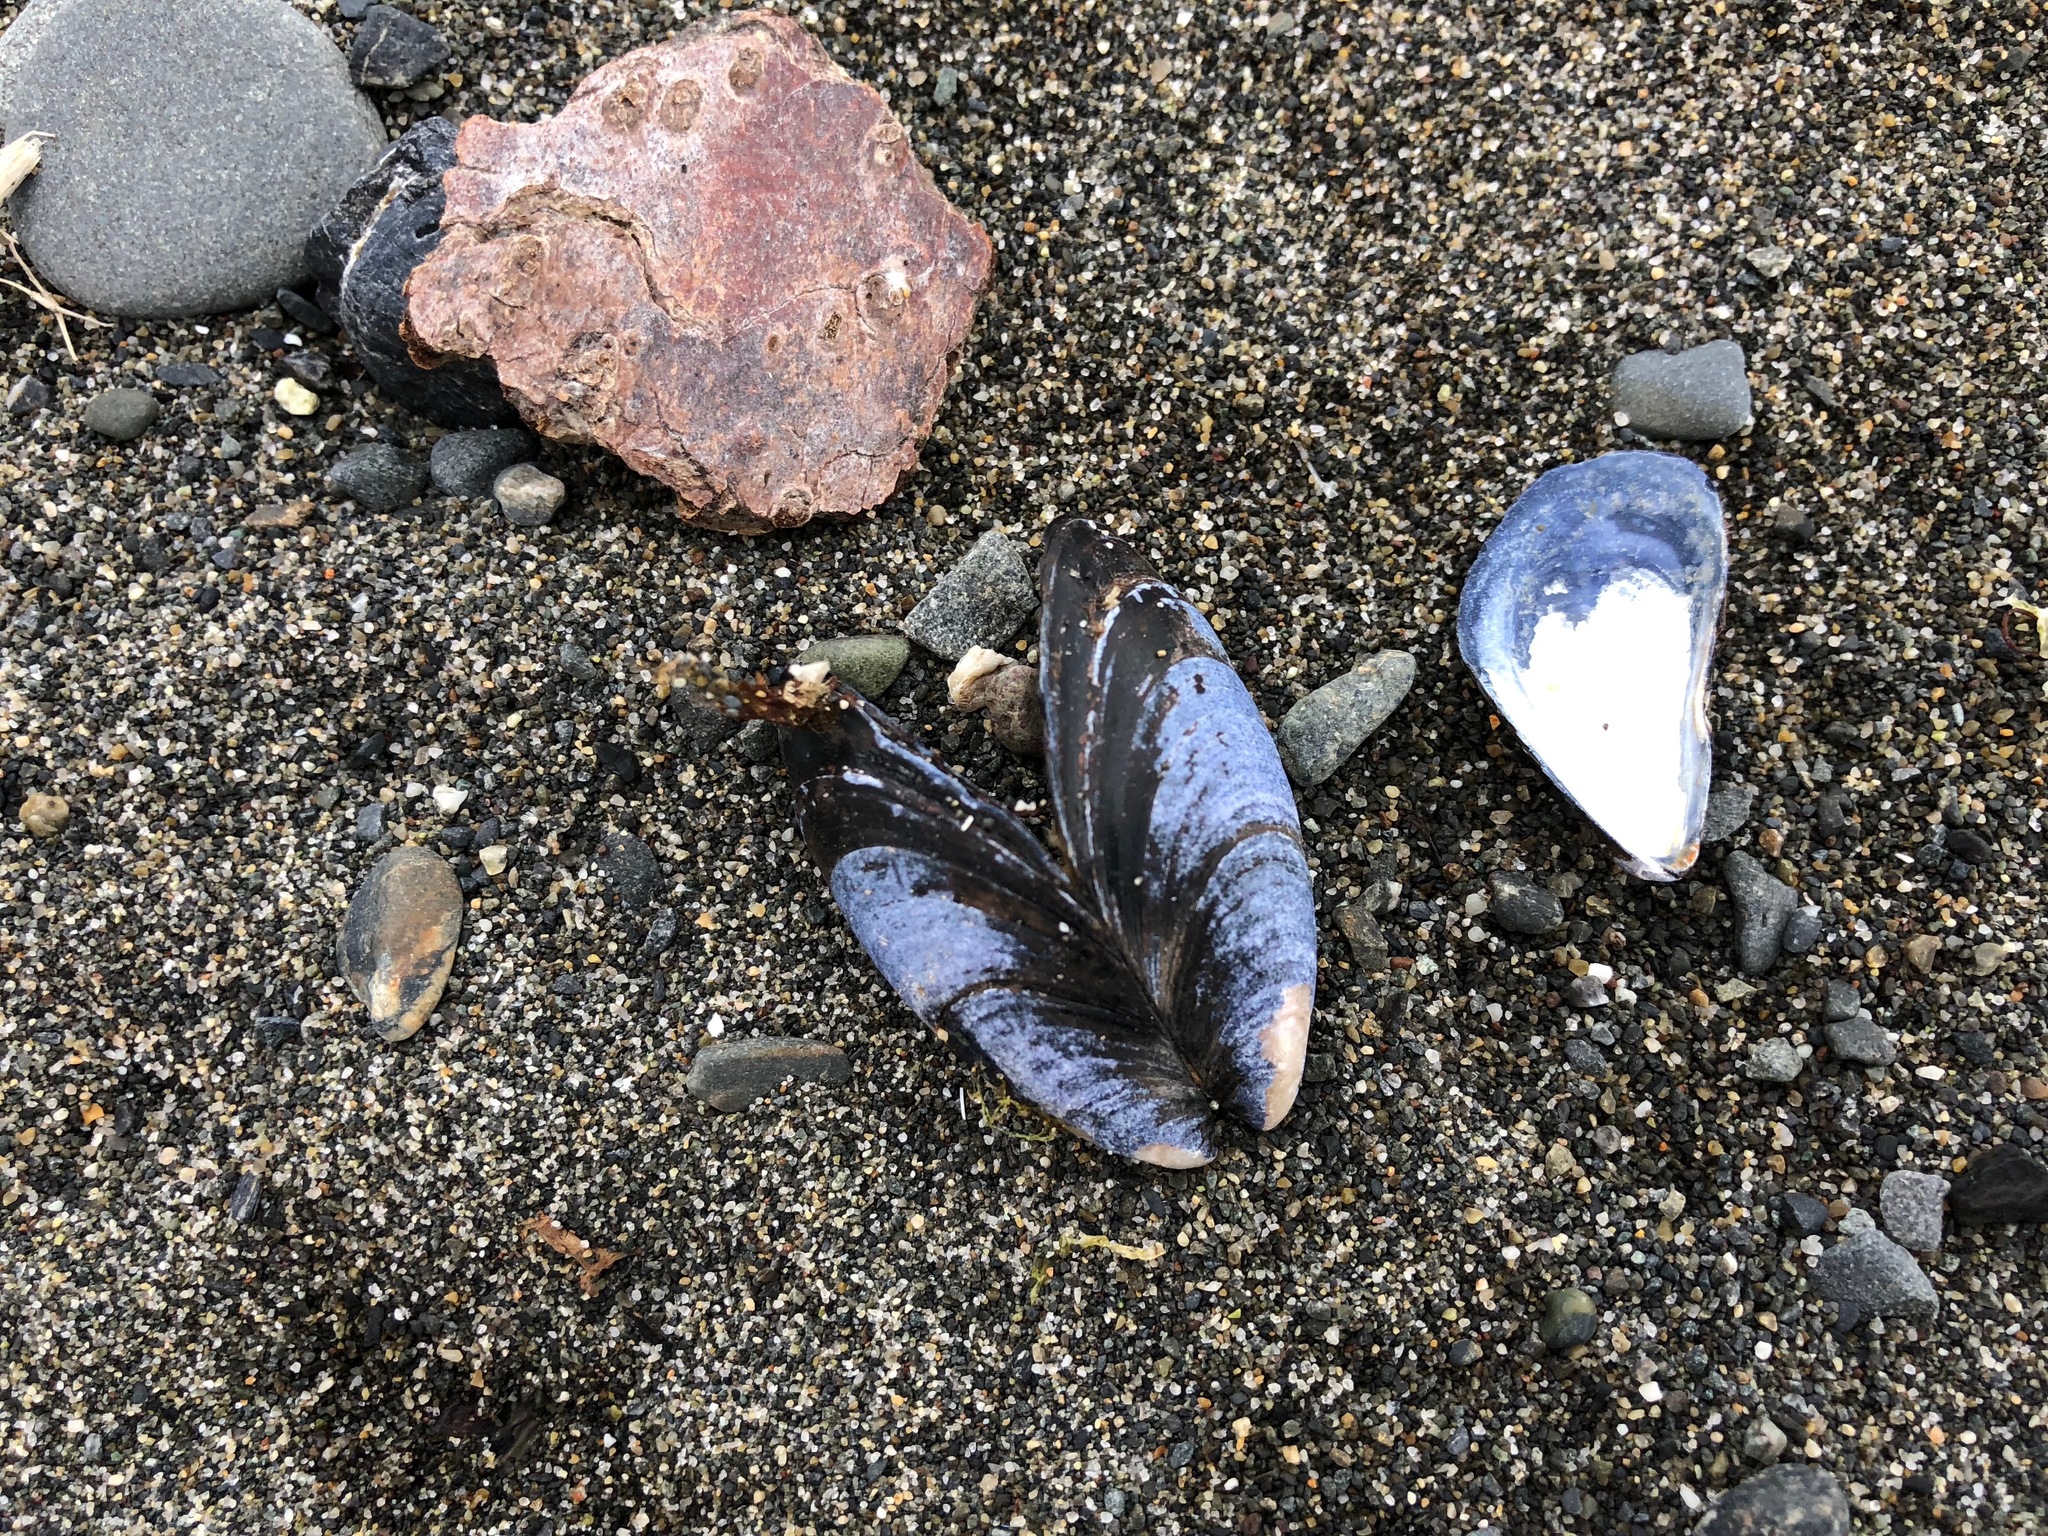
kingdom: Animalia
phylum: Mollusca
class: Bivalvia
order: Mytilida
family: Mytilidae
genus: Mytilus
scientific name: Mytilus trossulus
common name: Northern blue mussel
